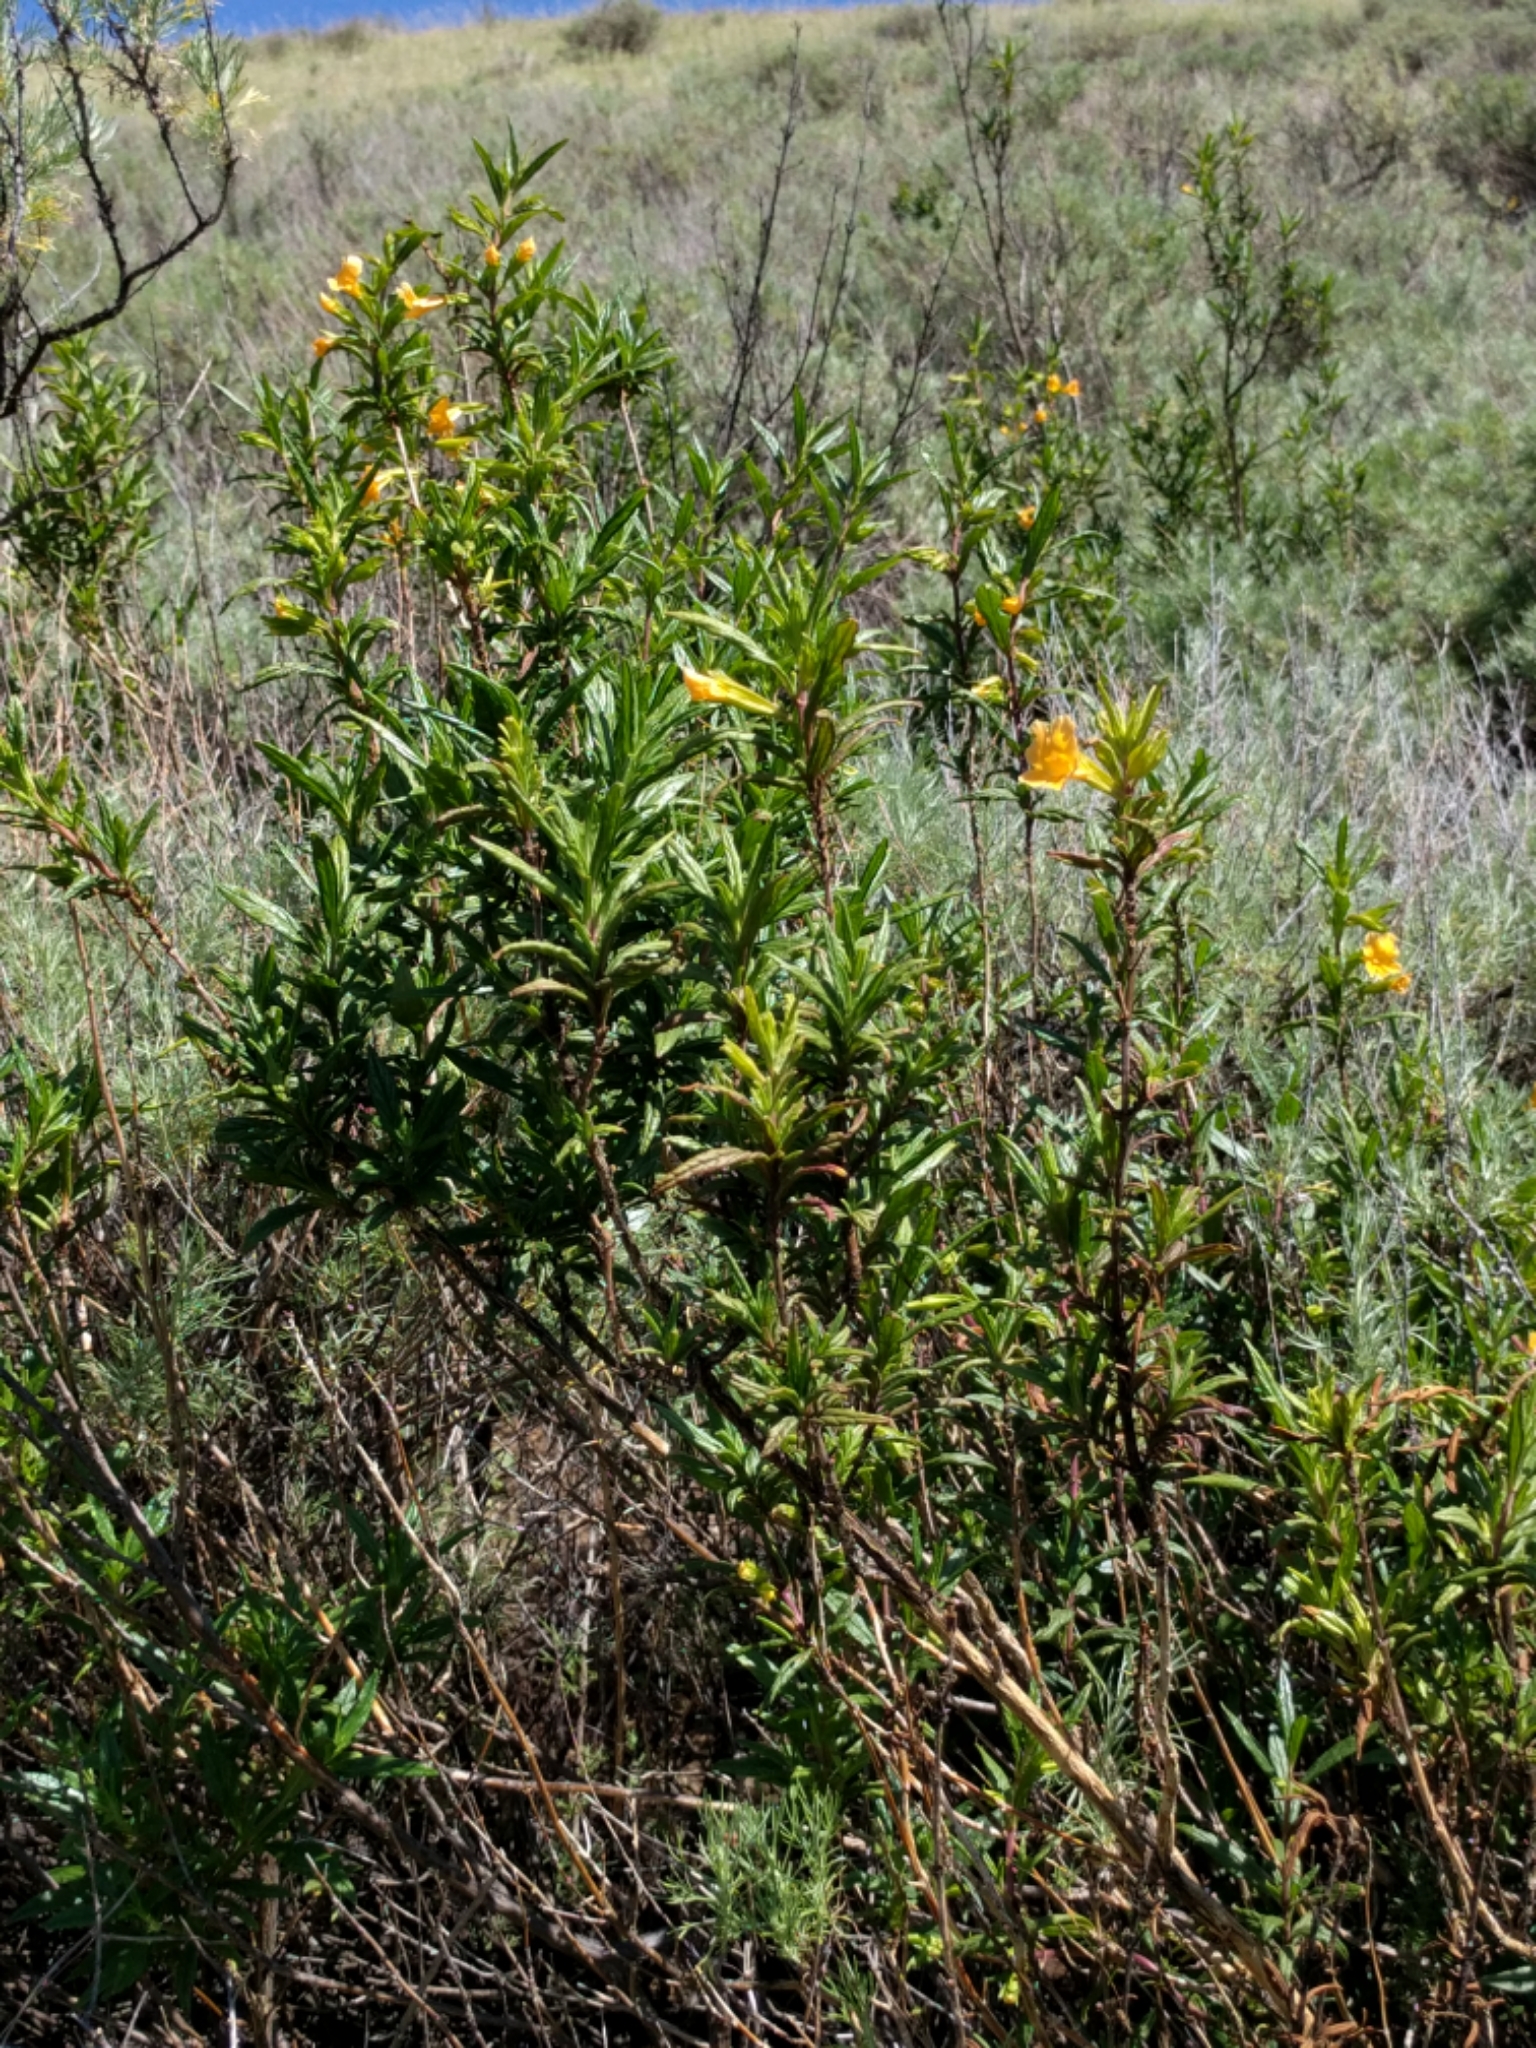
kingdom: Plantae
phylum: Tracheophyta
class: Magnoliopsida
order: Lamiales
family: Phrymaceae
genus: Diplacus
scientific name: Diplacus aurantiacus
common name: Bush monkey-flower
